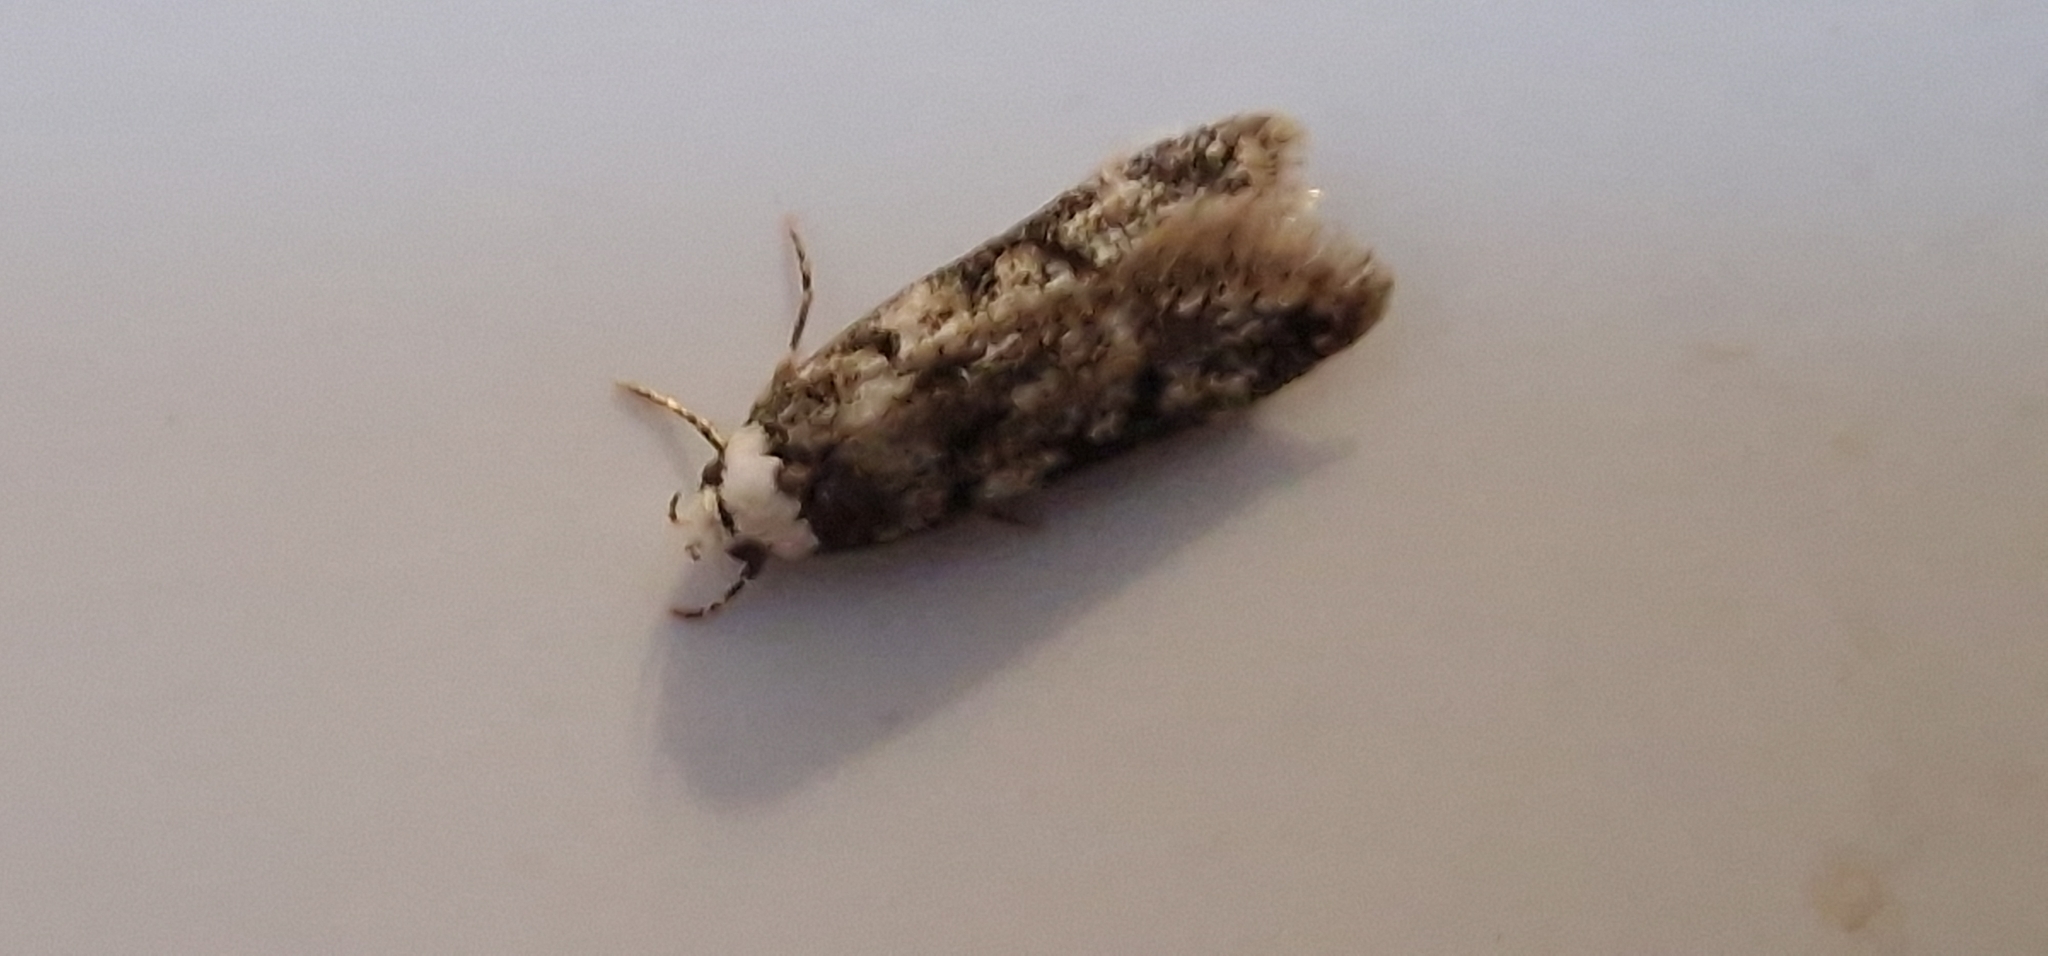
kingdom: Animalia
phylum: Arthropoda
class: Insecta
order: Lepidoptera
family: Oecophoridae
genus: Endrosis
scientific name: Endrosis sarcitrella
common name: White-shouldered house moth
